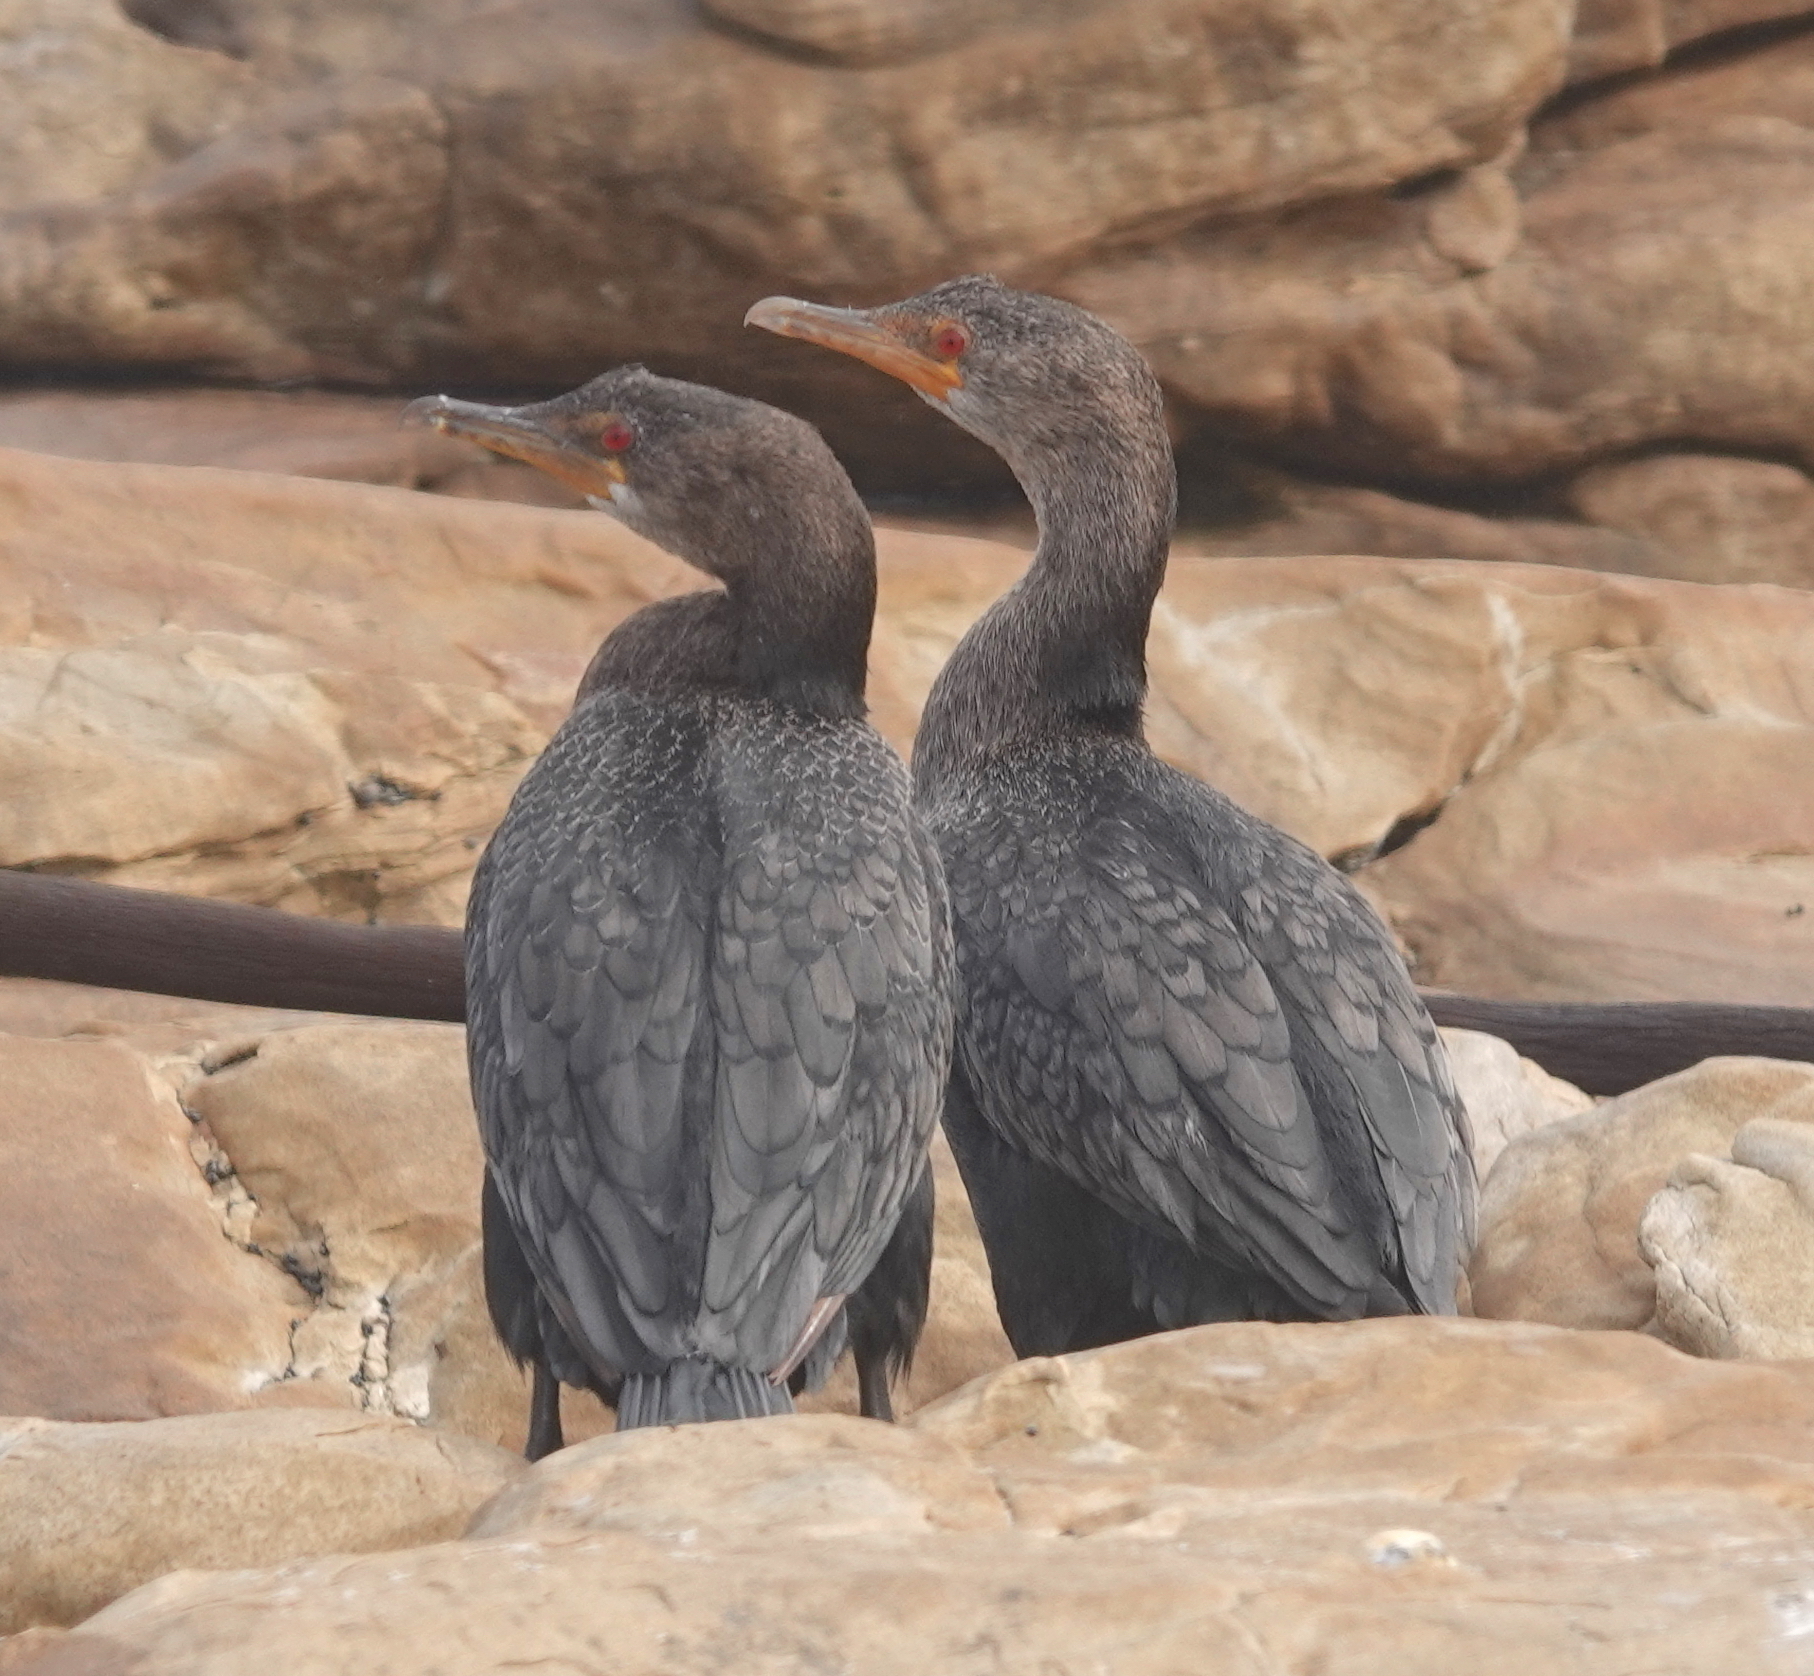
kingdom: Animalia
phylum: Chordata
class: Aves
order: Suliformes
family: Phalacrocoracidae
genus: Microcarbo
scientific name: Microcarbo coronatus
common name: Crowned cormorant
